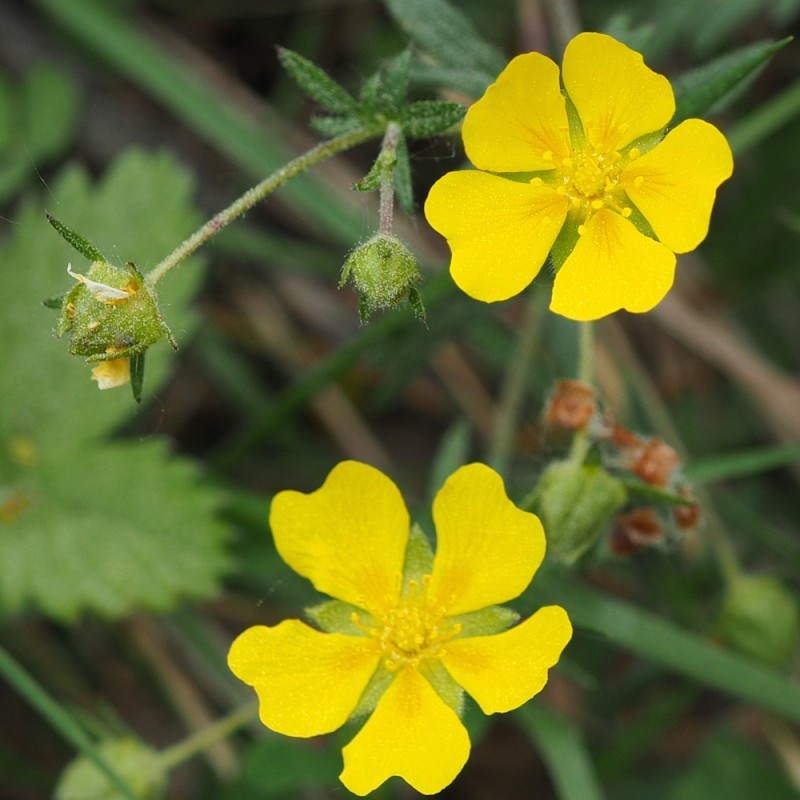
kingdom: Plantae
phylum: Tracheophyta
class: Magnoliopsida
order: Rosales
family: Rosaceae
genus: Potentilla
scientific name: Potentilla crantzii
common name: Alpine cinquefoil
